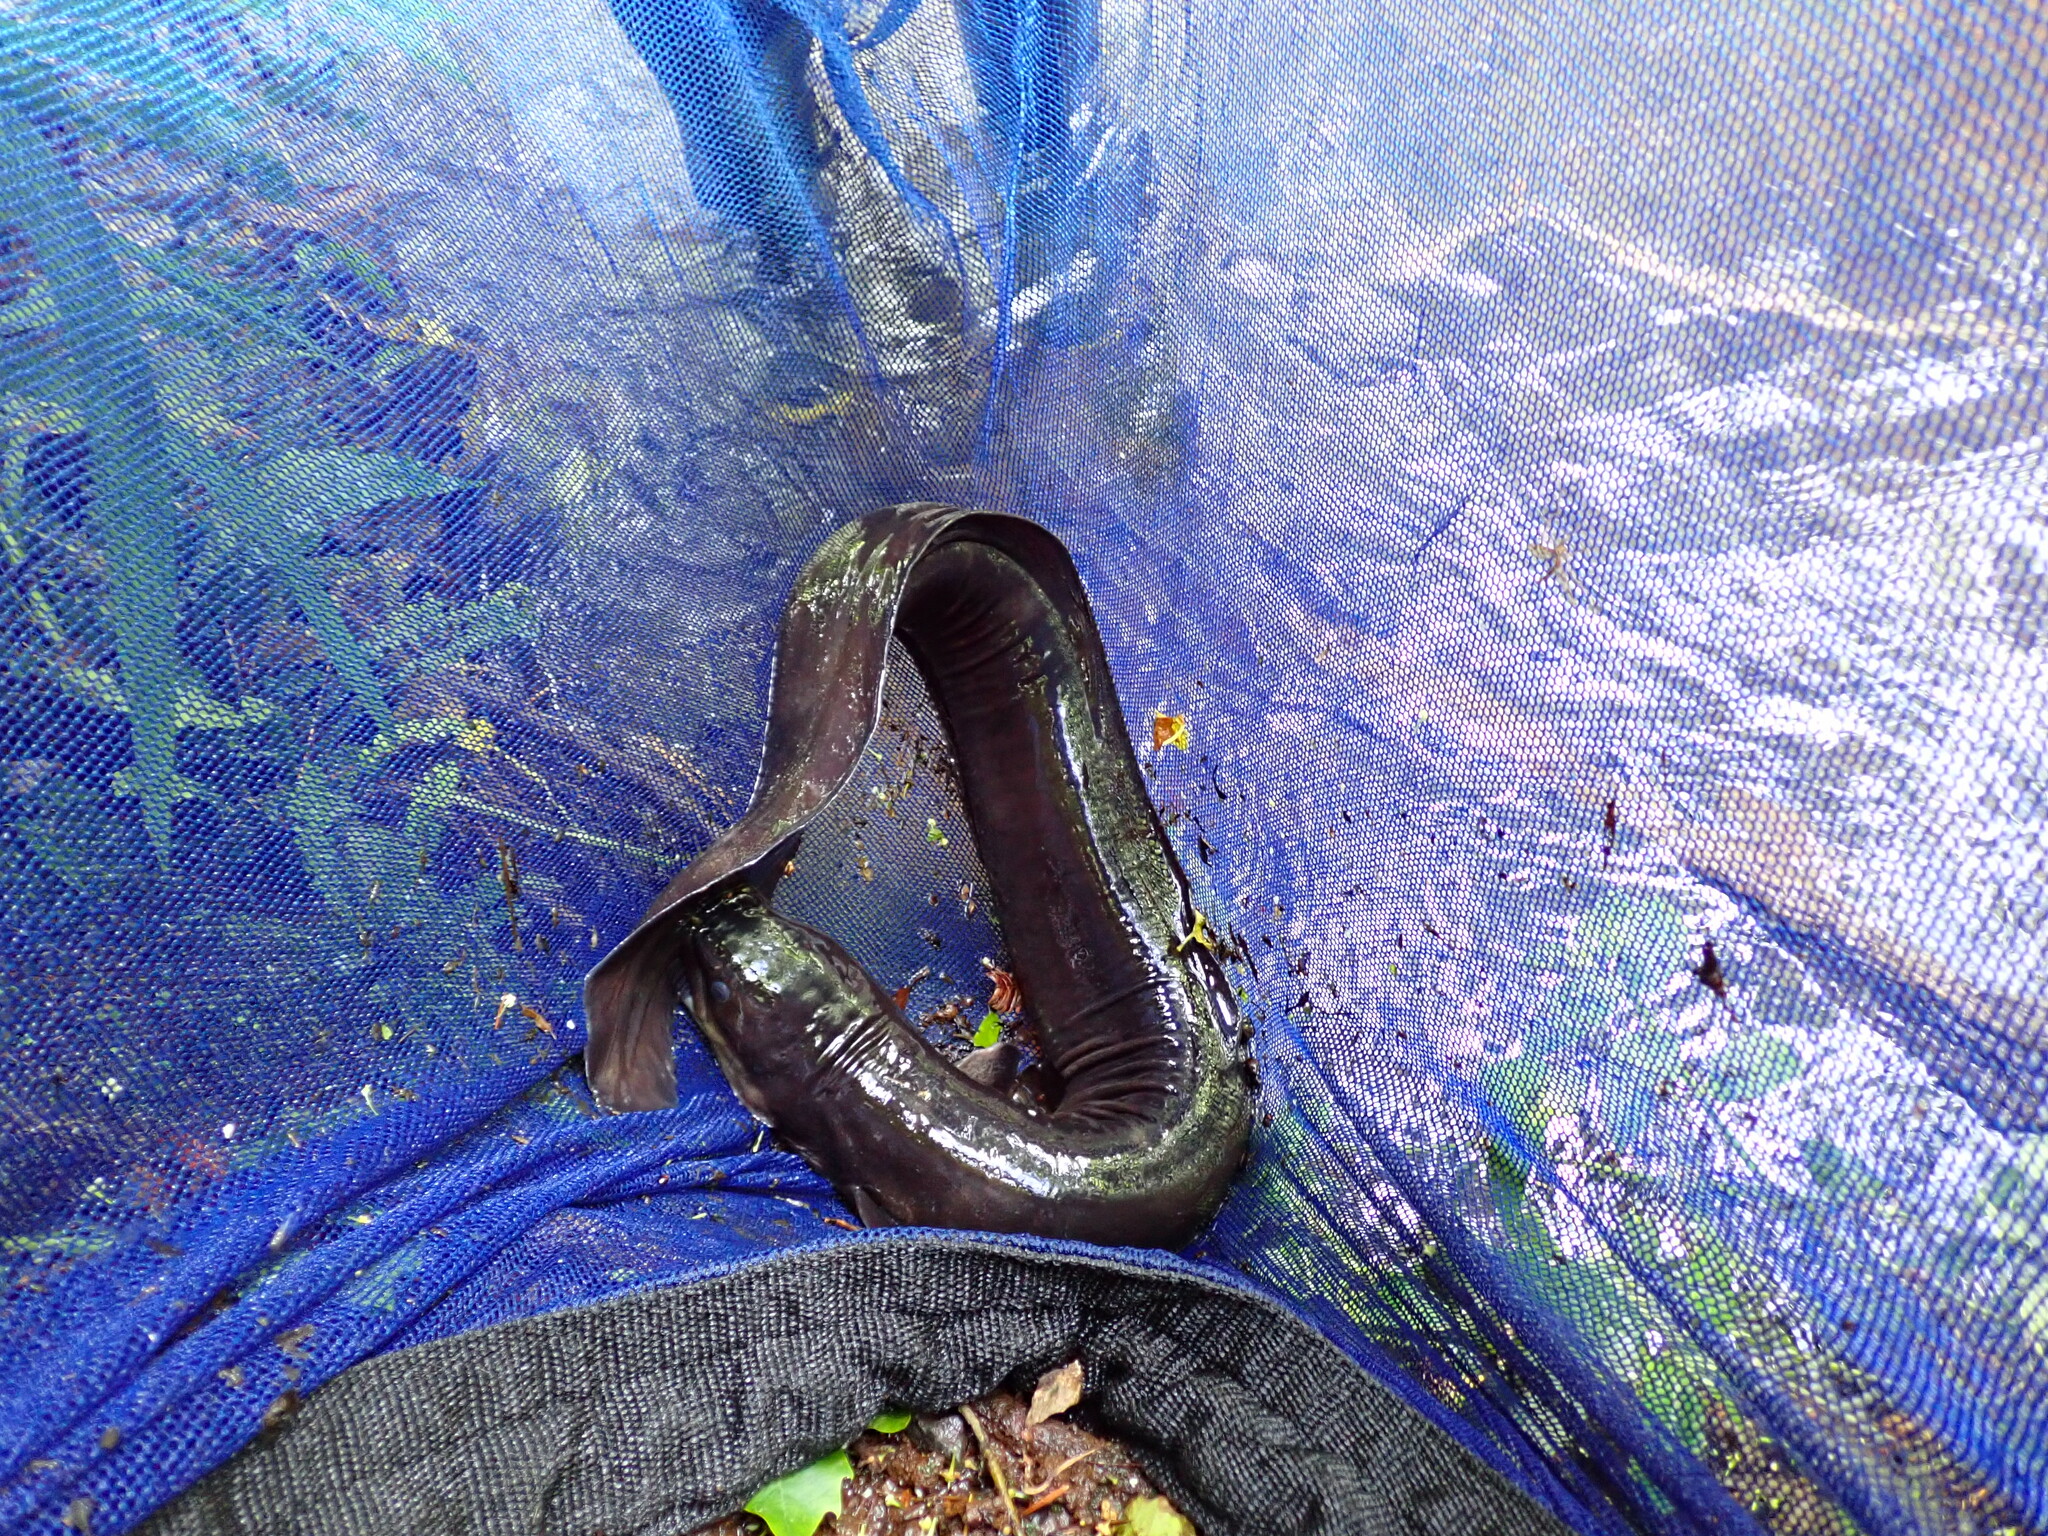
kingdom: Animalia
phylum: Chordata
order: Anguilliformes
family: Anguillidae
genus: Anguilla
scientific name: Anguilla dieffenbachii
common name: New zealand longfin eel
